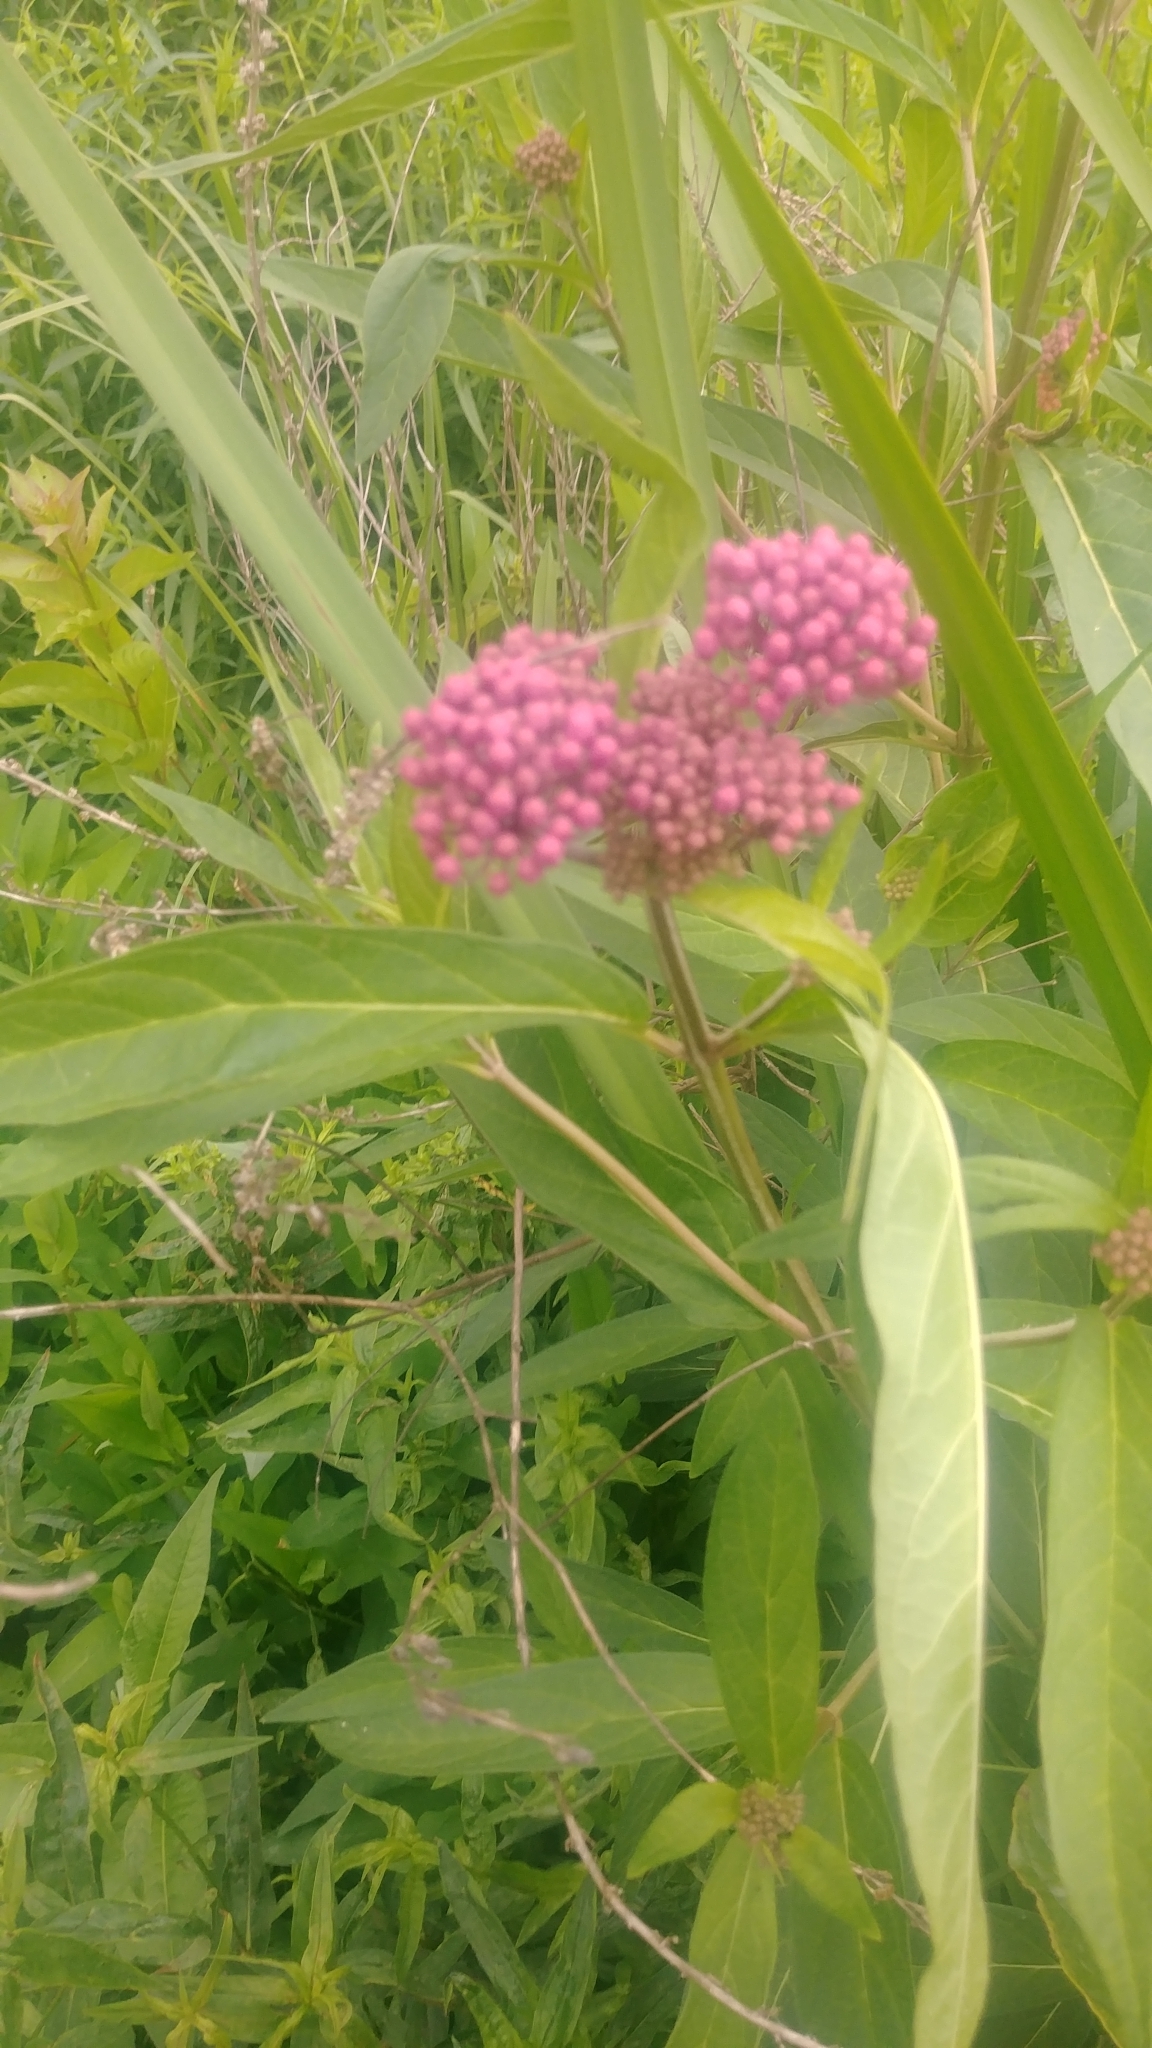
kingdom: Plantae
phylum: Tracheophyta
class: Magnoliopsida
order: Gentianales
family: Apocynaceae
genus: Asclepias
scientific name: Asclepias incarnata
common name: Swamp milkweed
